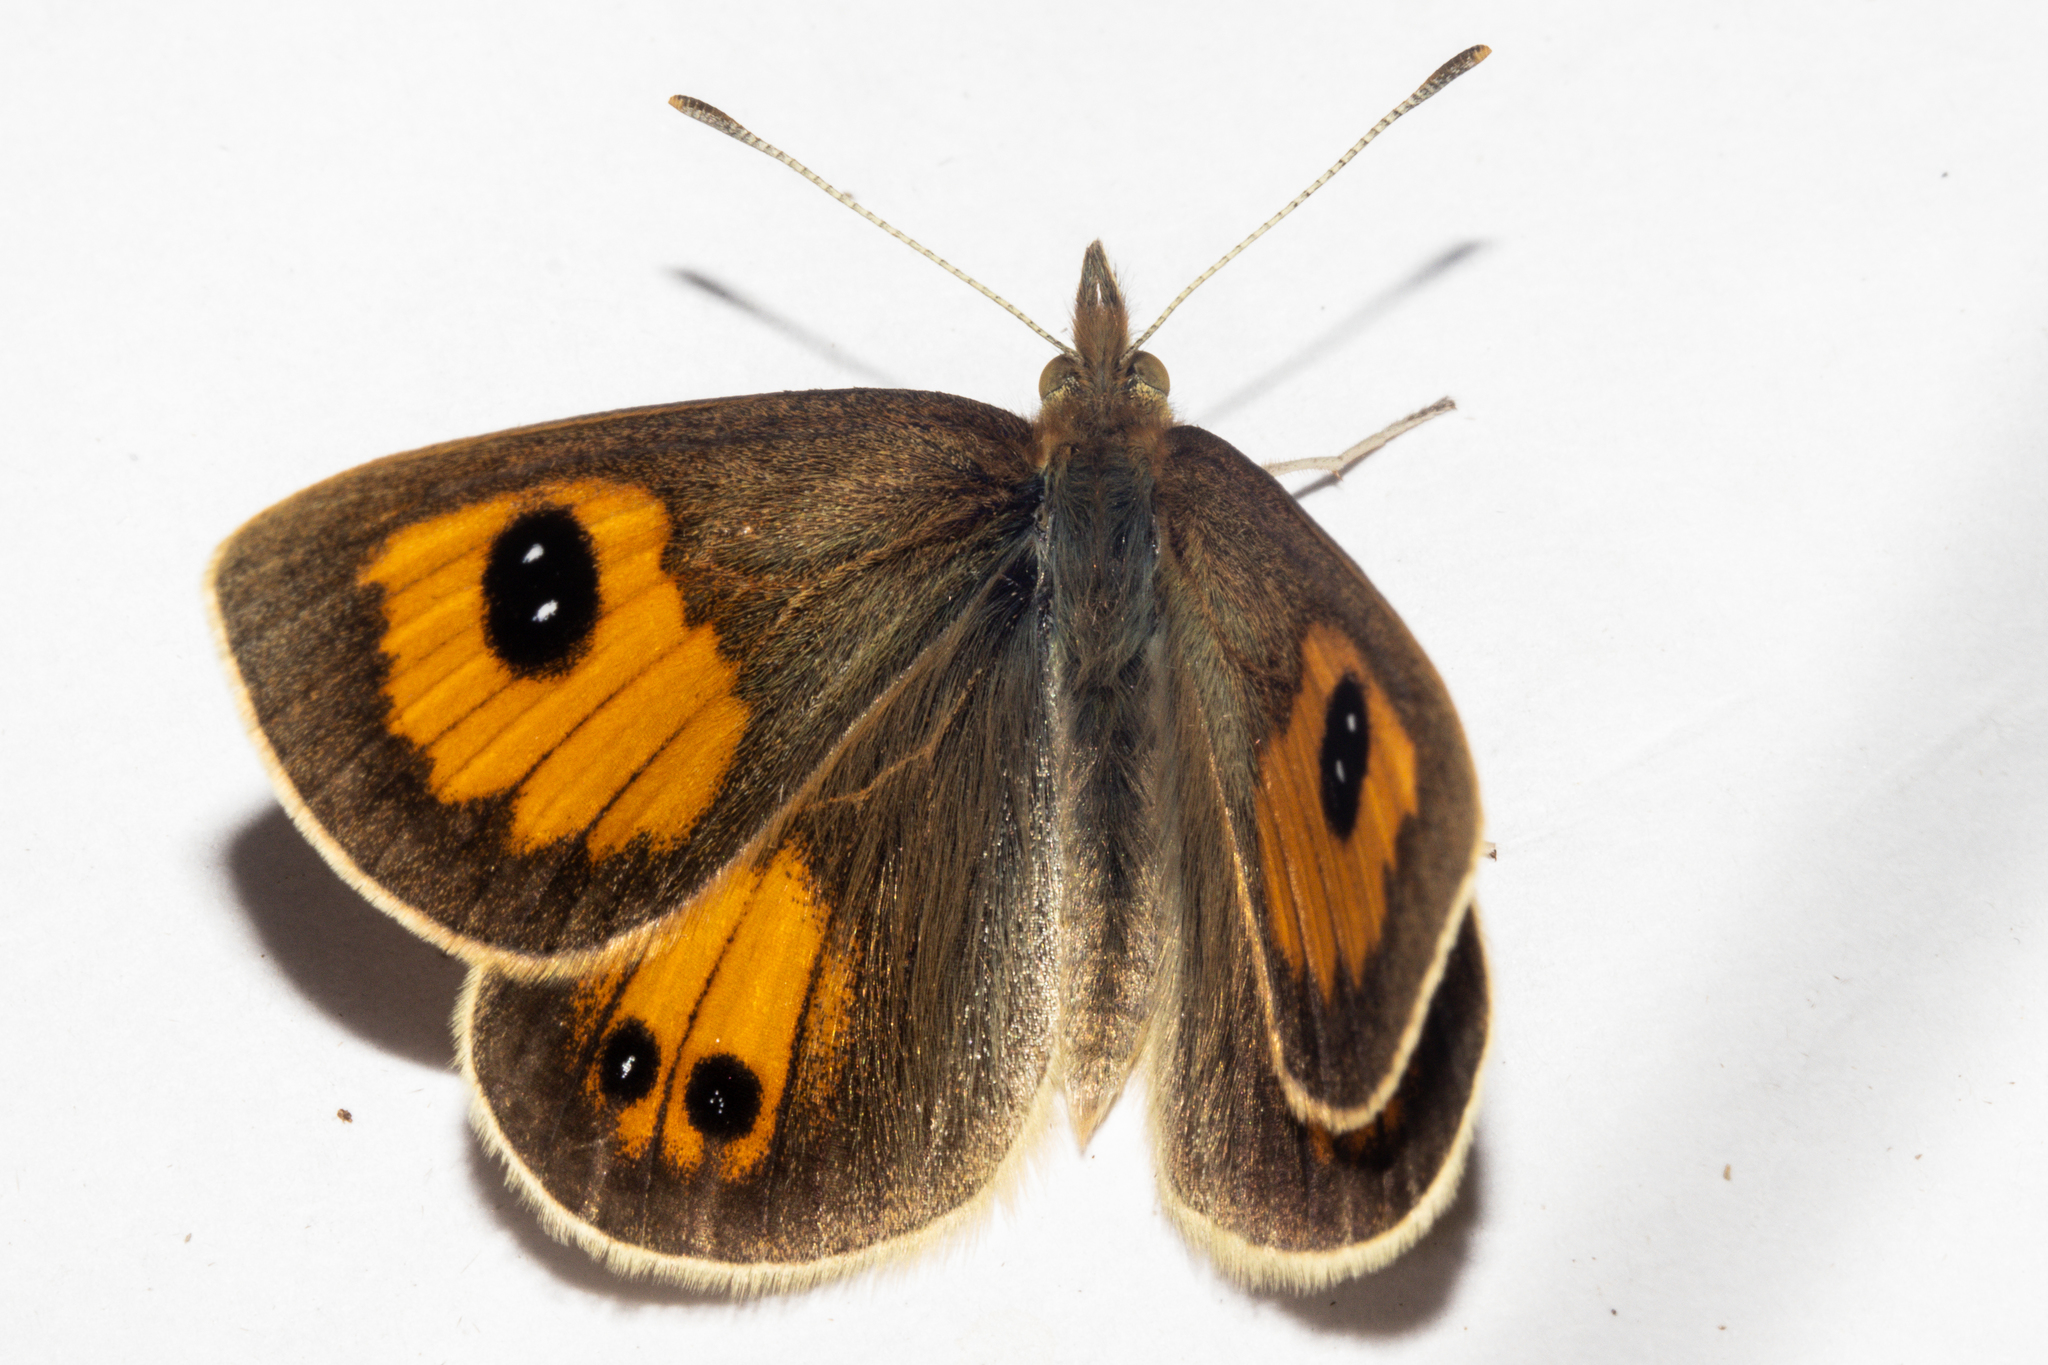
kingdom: Animalia
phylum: Arthropoda
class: Insecta
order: Lepidoptera
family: Nymphalidae
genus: Argyrophenga
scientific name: Argyrophenga janitae
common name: Janita's tussock
